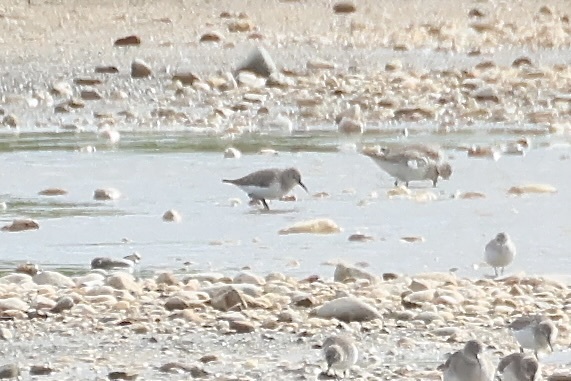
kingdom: Animalia
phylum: Chordata
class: Aves
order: Charadriiformes
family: Scolopacidae
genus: Calidris
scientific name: Calidris minuta
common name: Little stint
